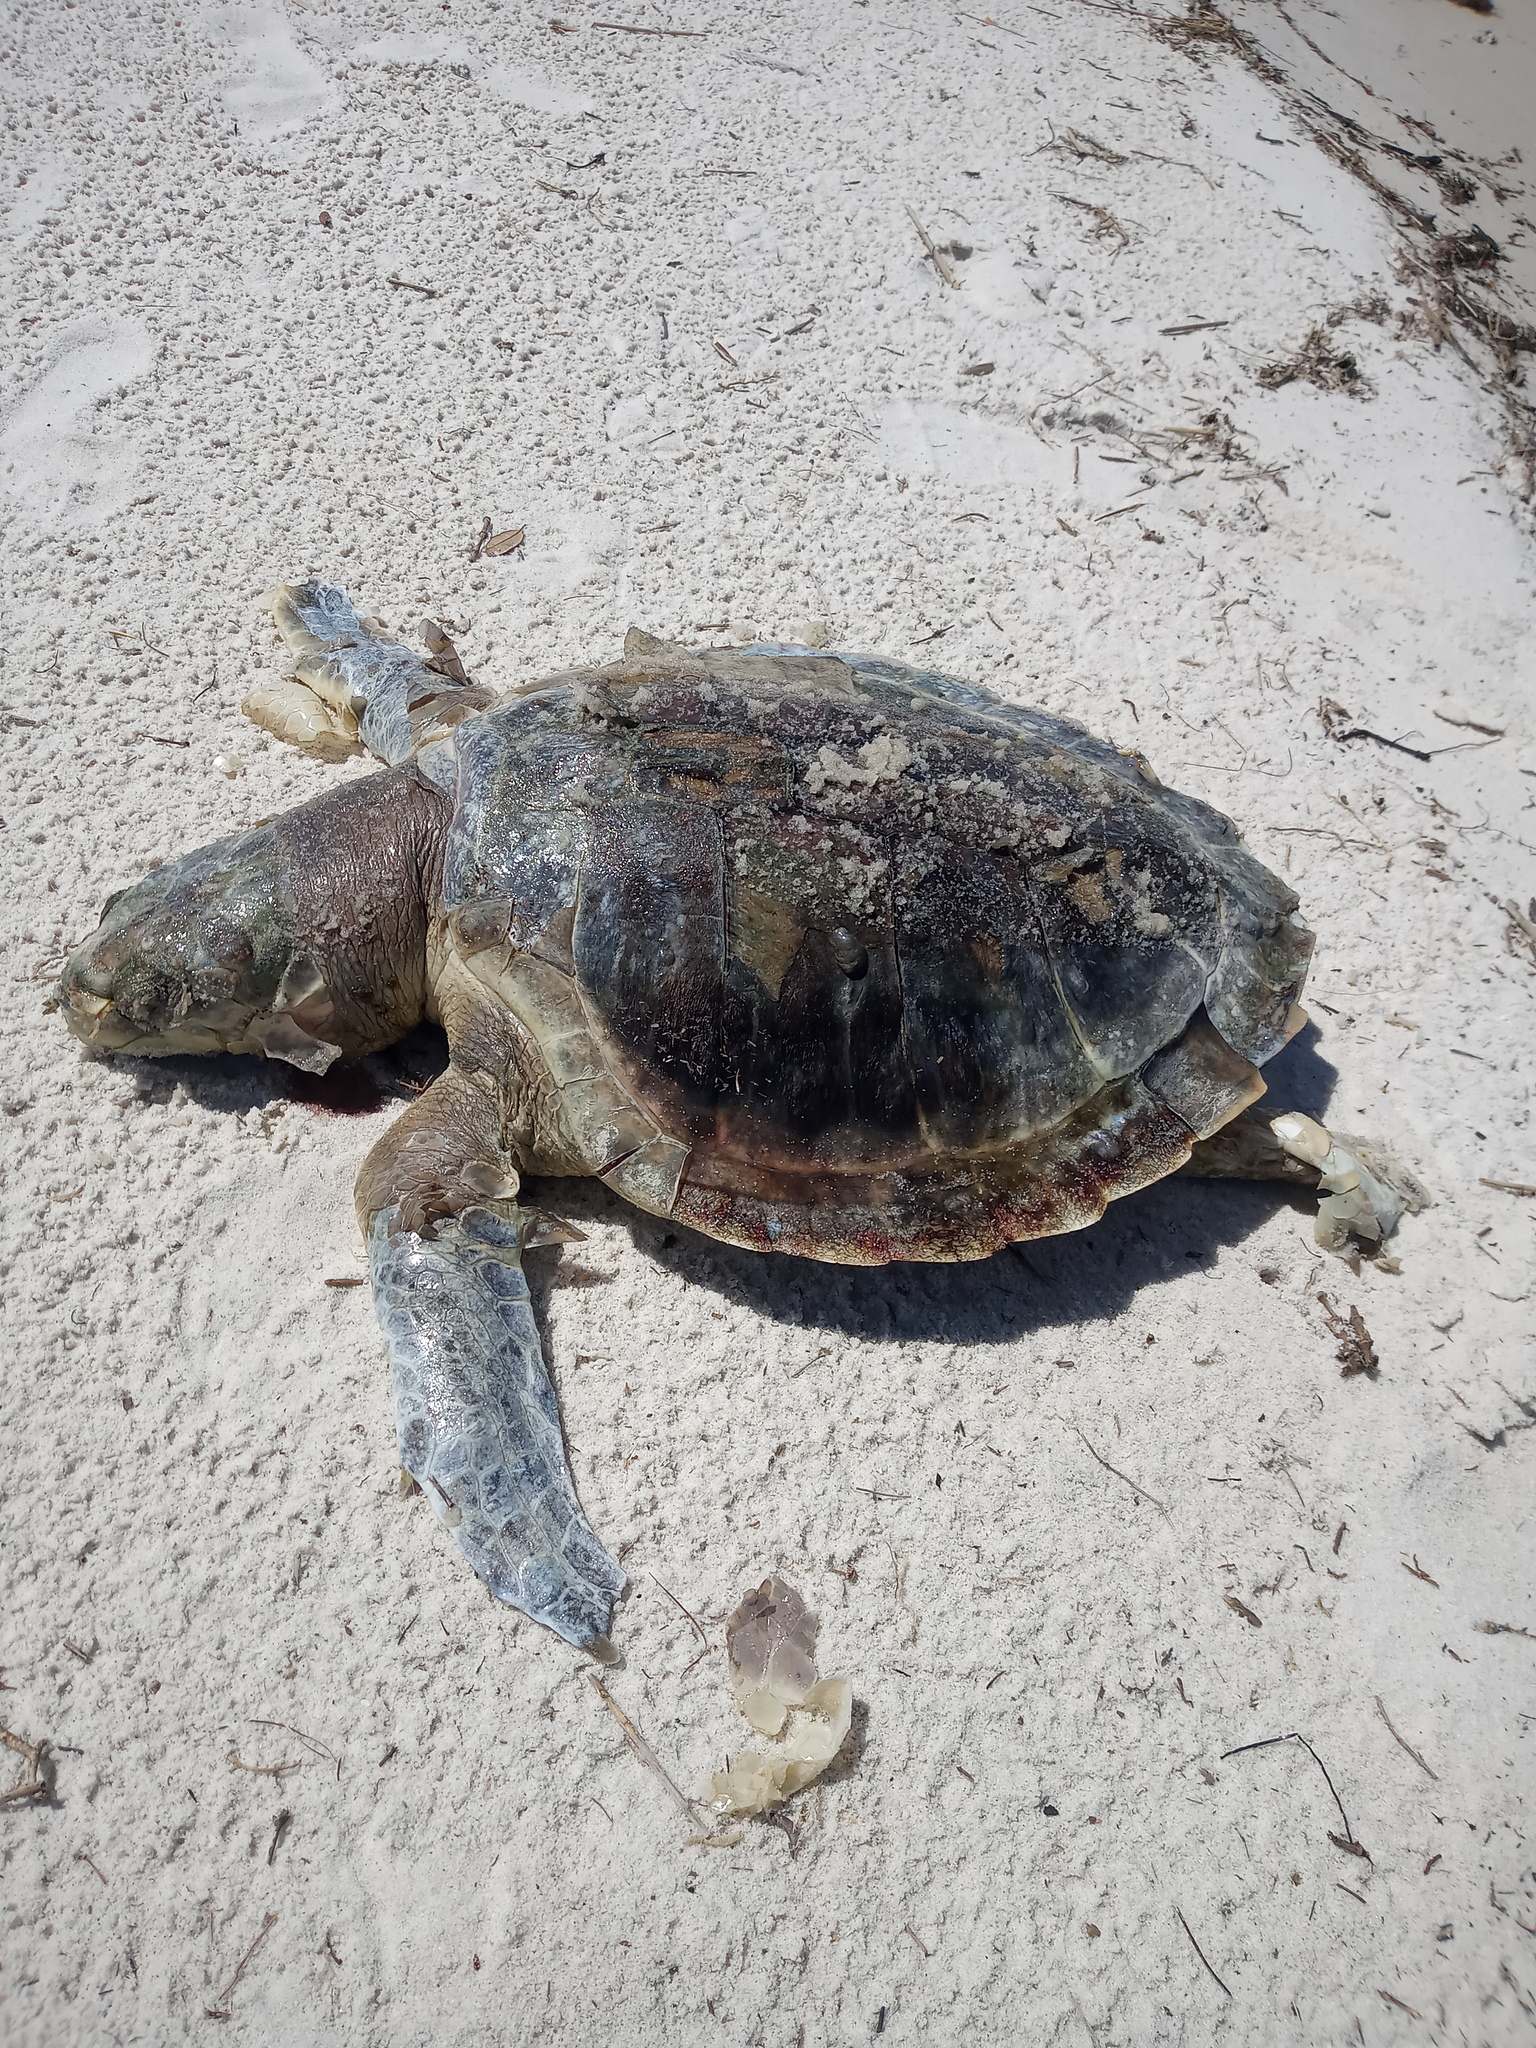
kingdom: Animalia
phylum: Chordata
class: Testudines
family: Cheloniidae
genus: Lepidochelys
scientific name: Lepidochelys kempii
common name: Kemp's ridley turtle
